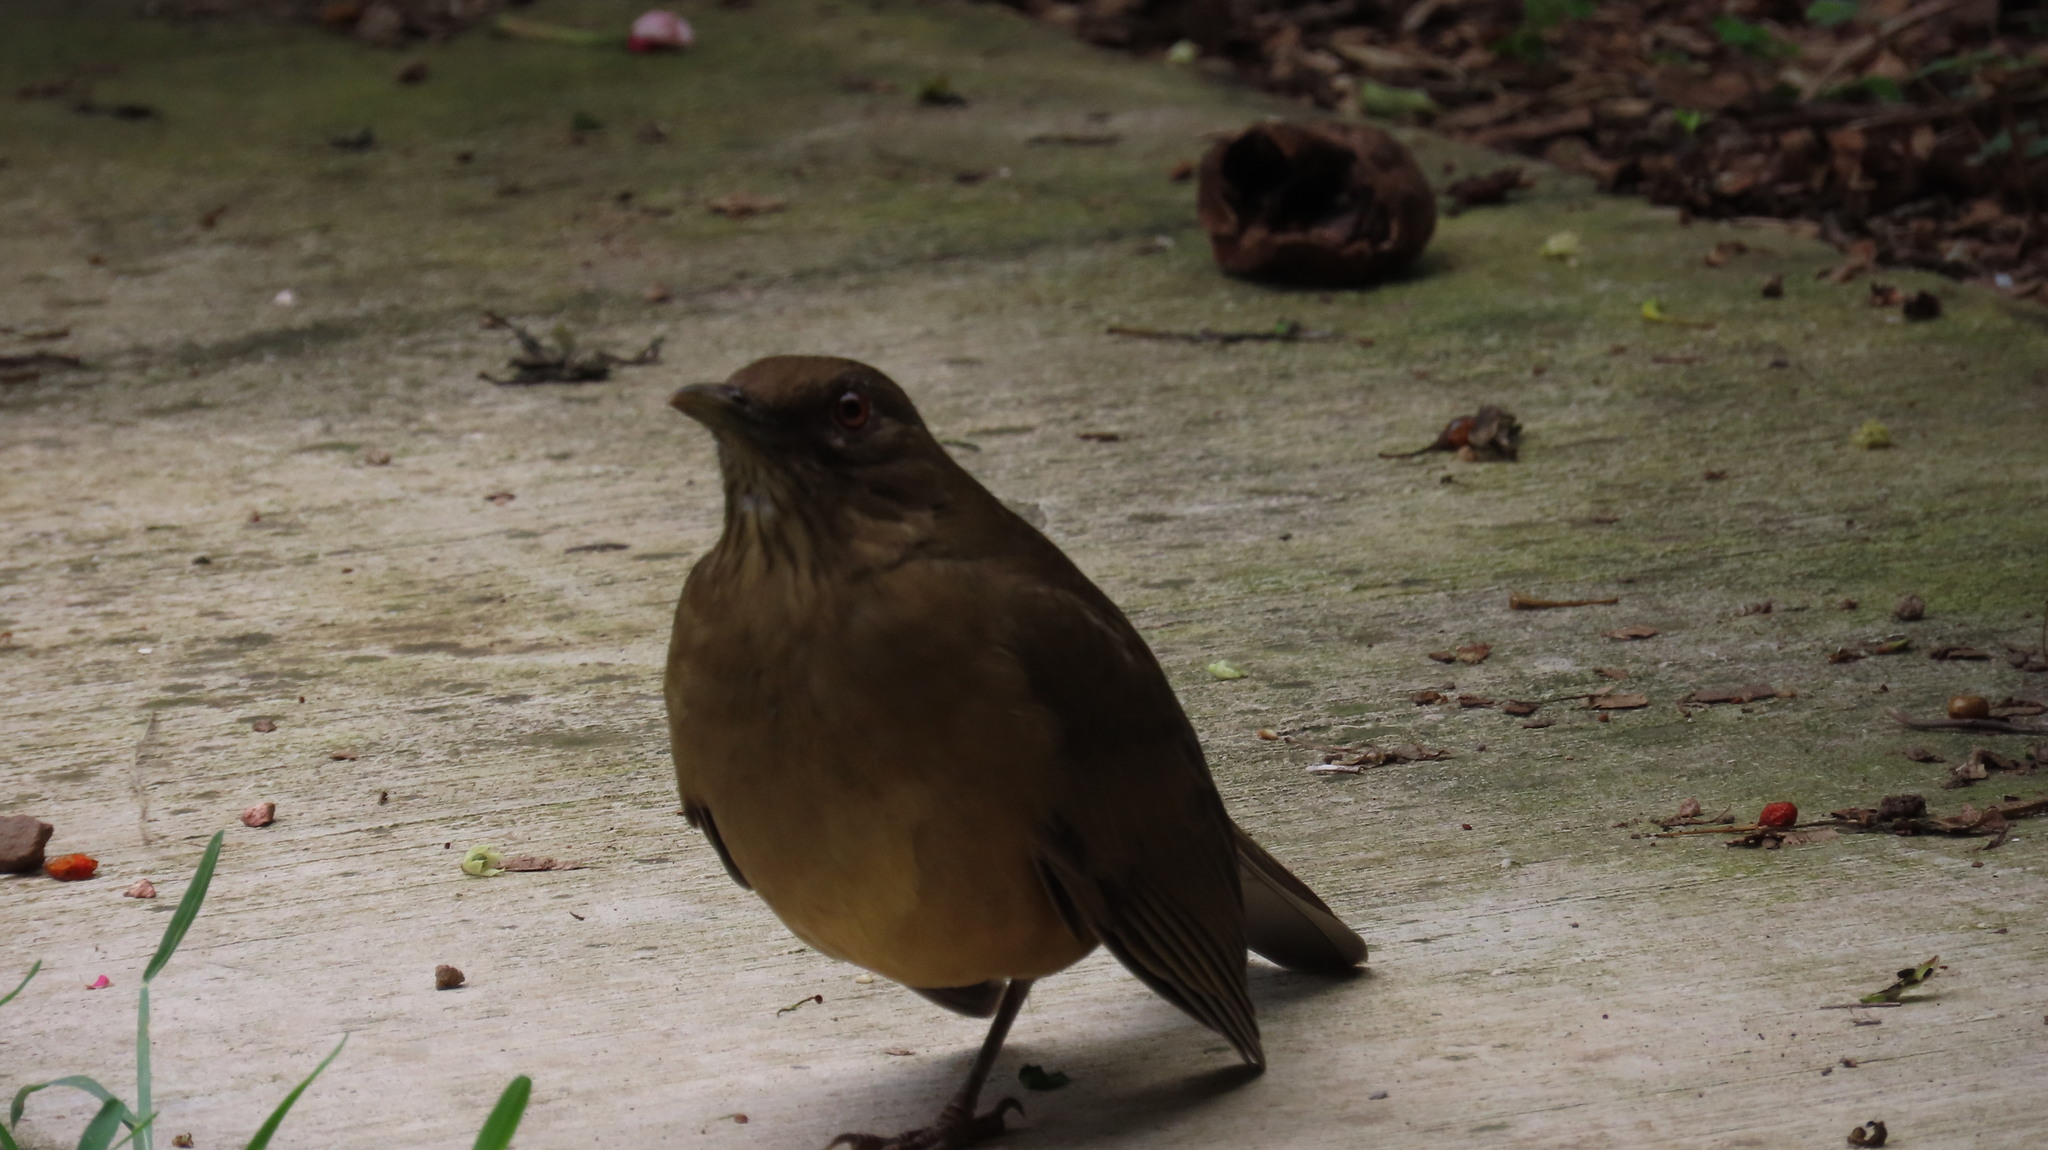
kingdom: Animalia
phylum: Chordata
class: Aves
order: Passeriformes
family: Turdidae
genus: Turdus
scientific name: Turdus grayi
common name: Clay-colored thrush
